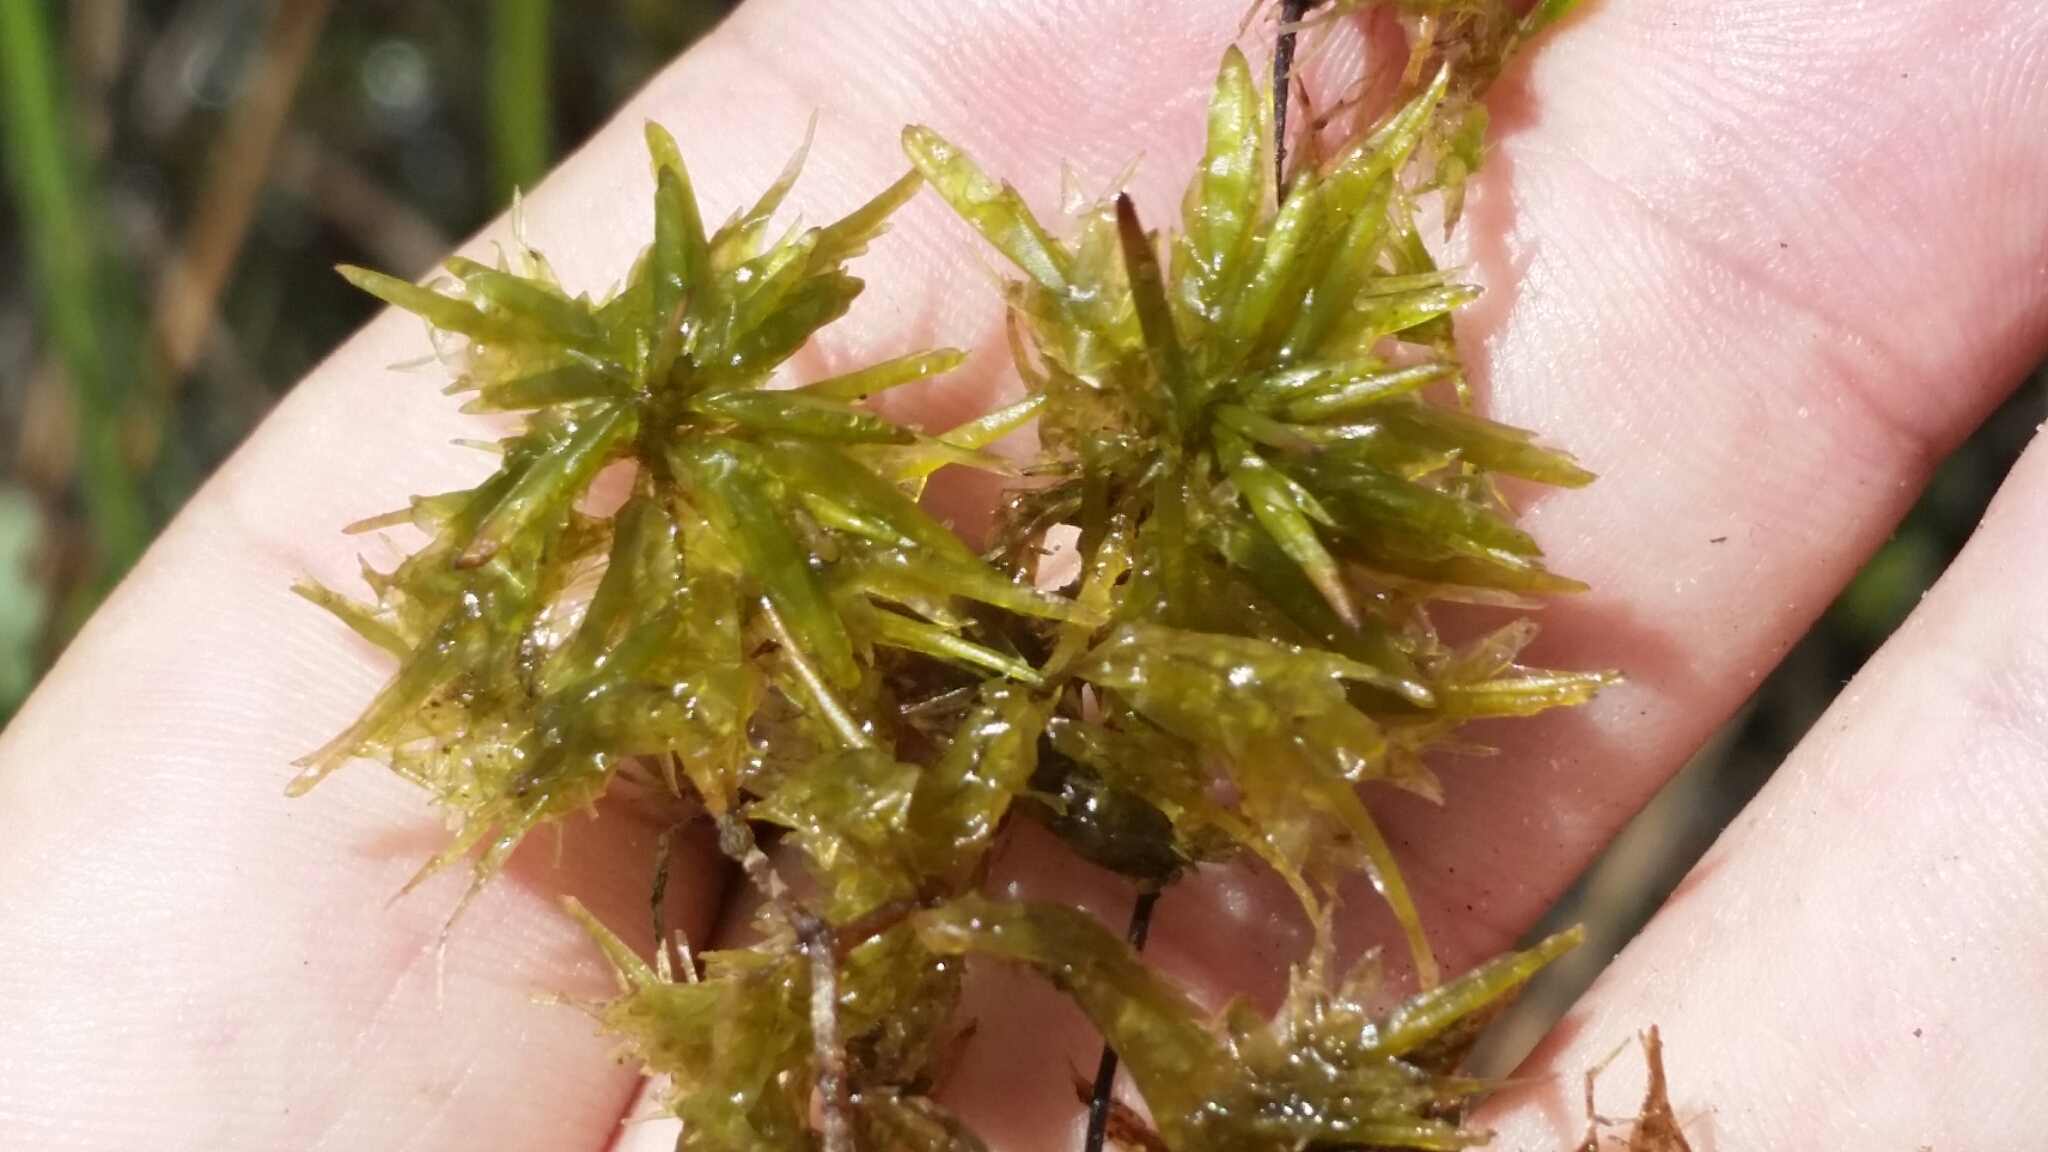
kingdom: Plantae
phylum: Bryophyta
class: Sphagnopsida
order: Sphagnales
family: Sphagnaceae
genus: Sphagnum
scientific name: Sphagnum cribrosum
